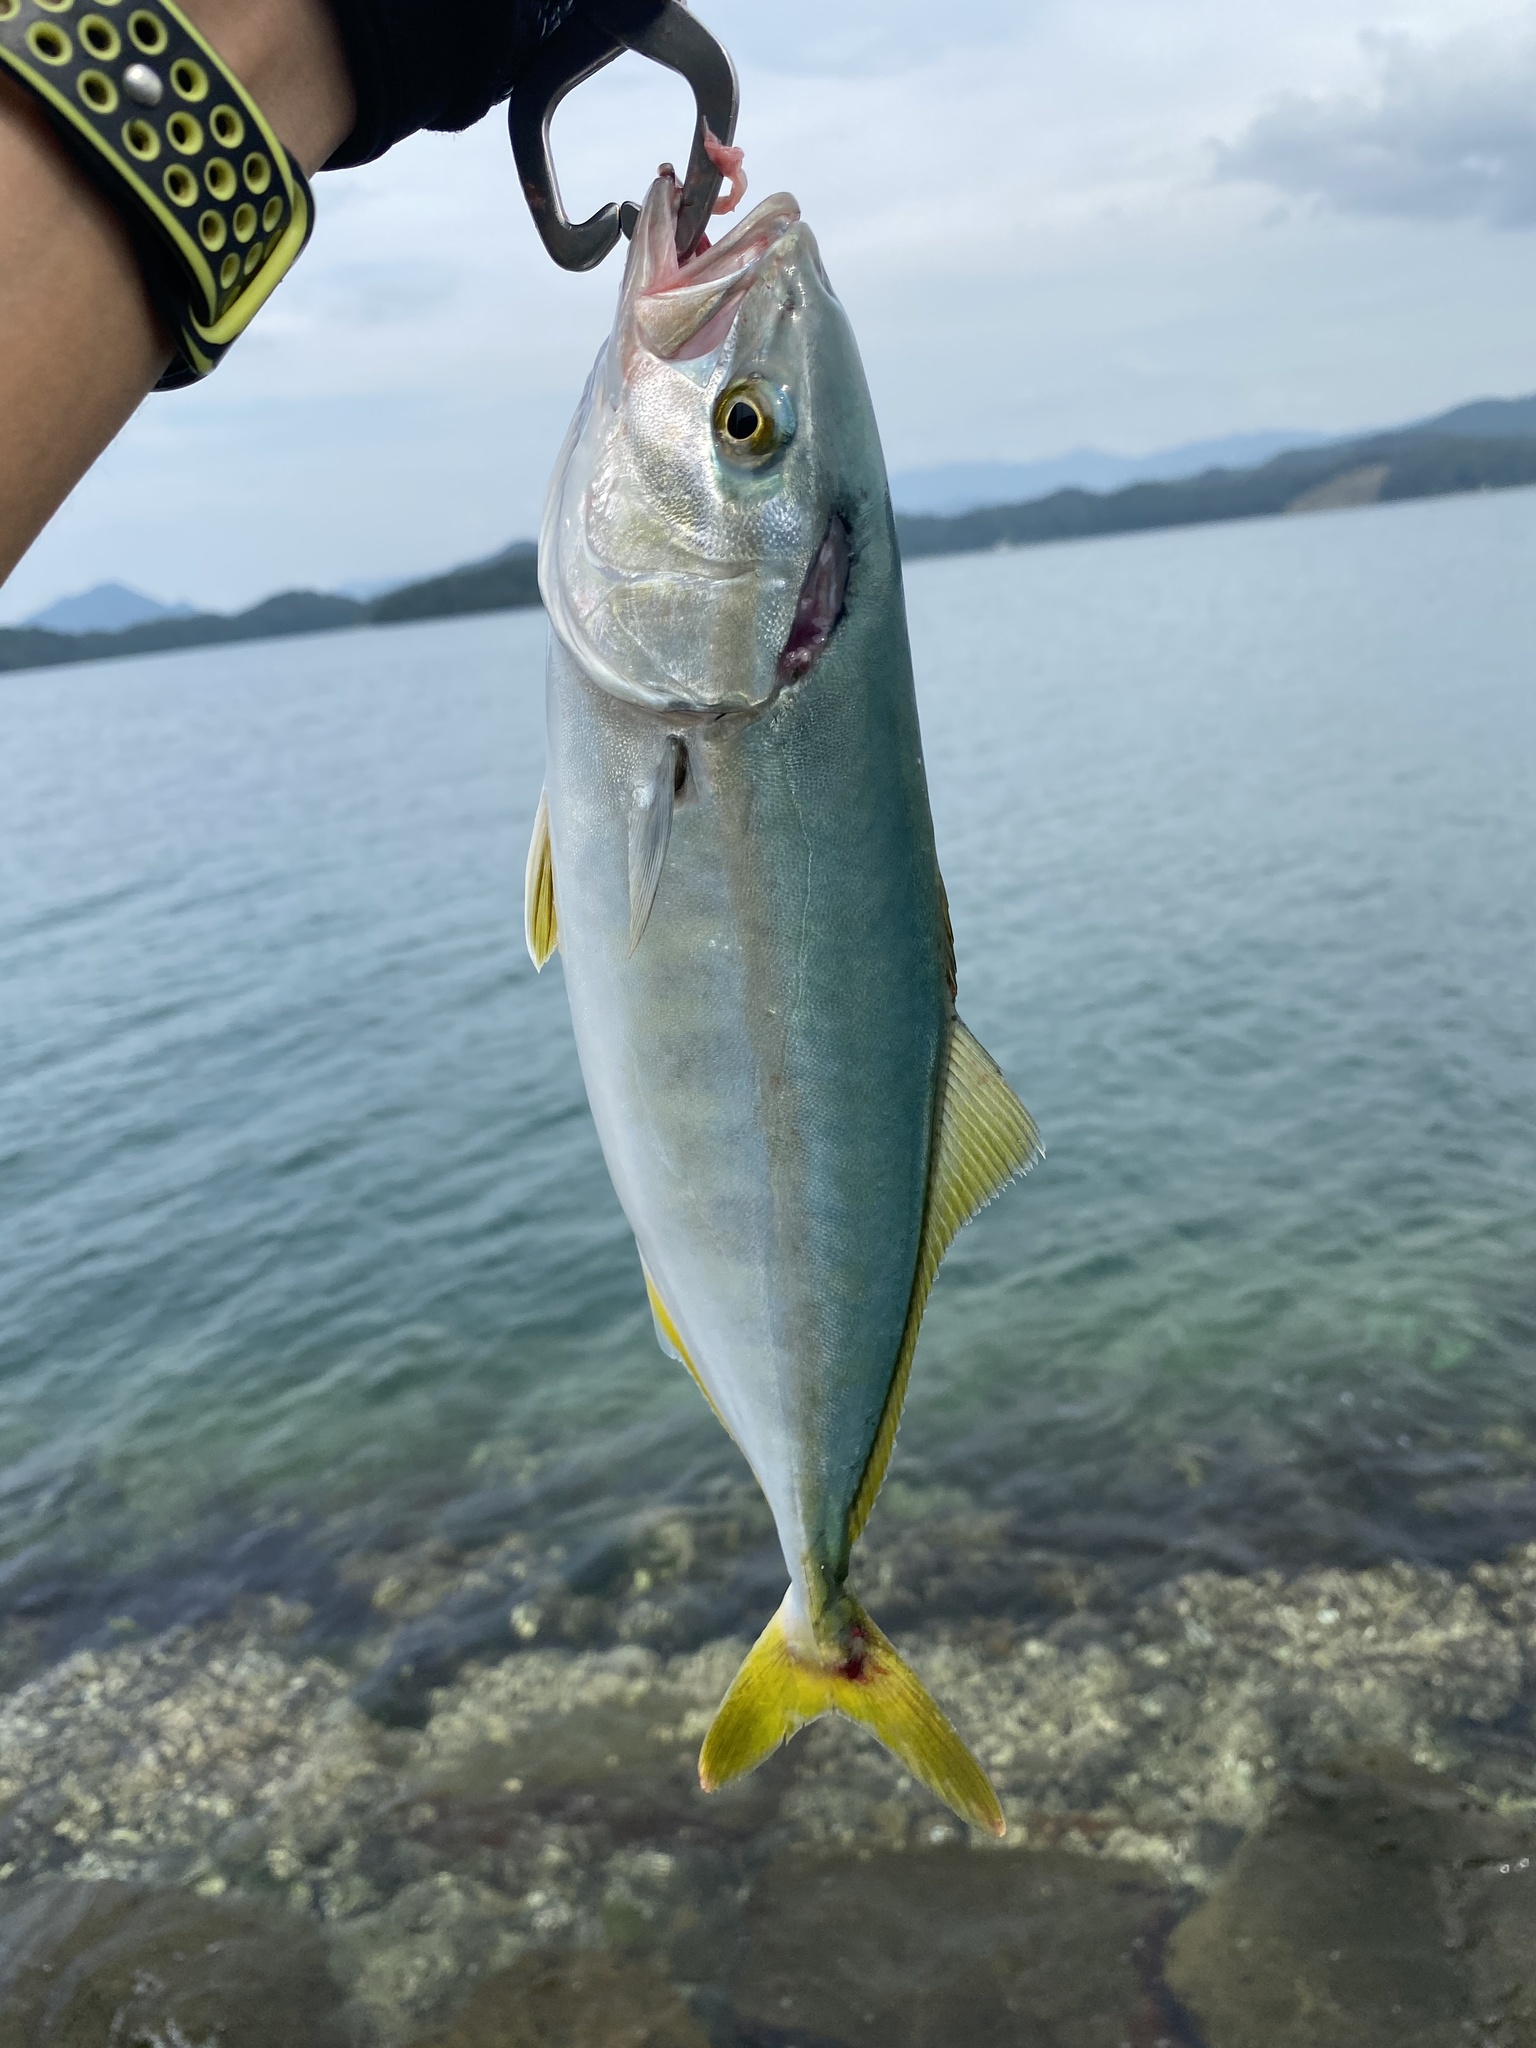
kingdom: Animalia
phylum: Chordata
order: Perciformes
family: Carangidae
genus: Seriola
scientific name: Seriola quinqueradiata
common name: Japanese amberjack
